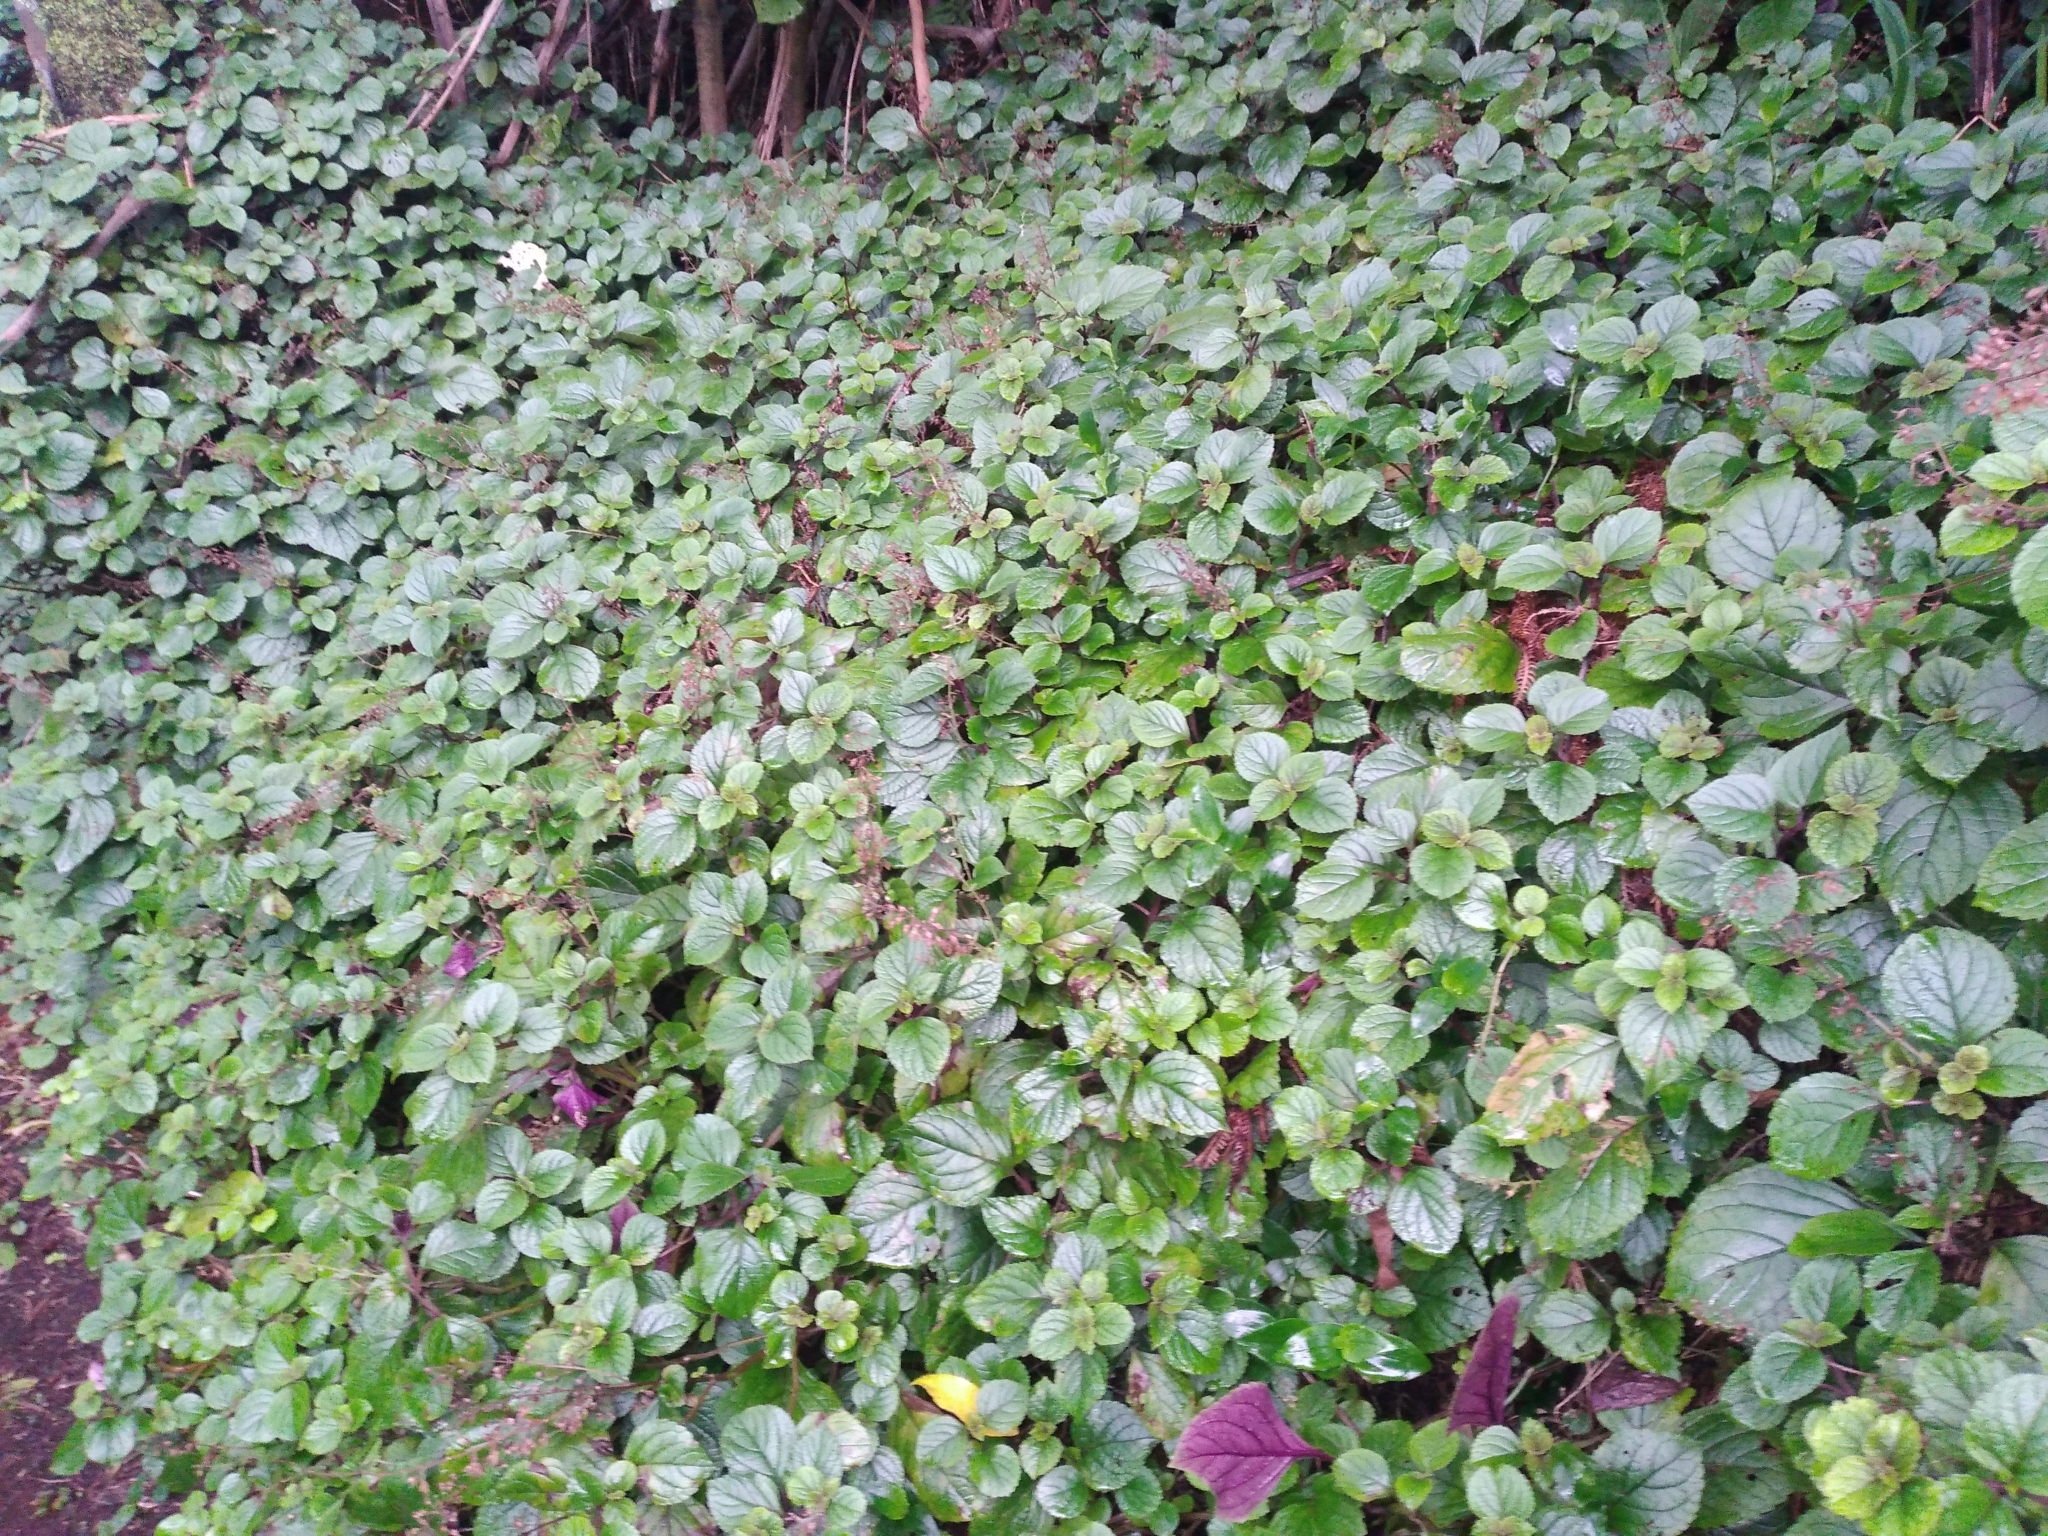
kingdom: Plantae
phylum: Tracheophyta
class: Magnoliopsida
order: Lamiales
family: Lamiaceae
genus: Plectranthus
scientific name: Plectranthus ciliatus
